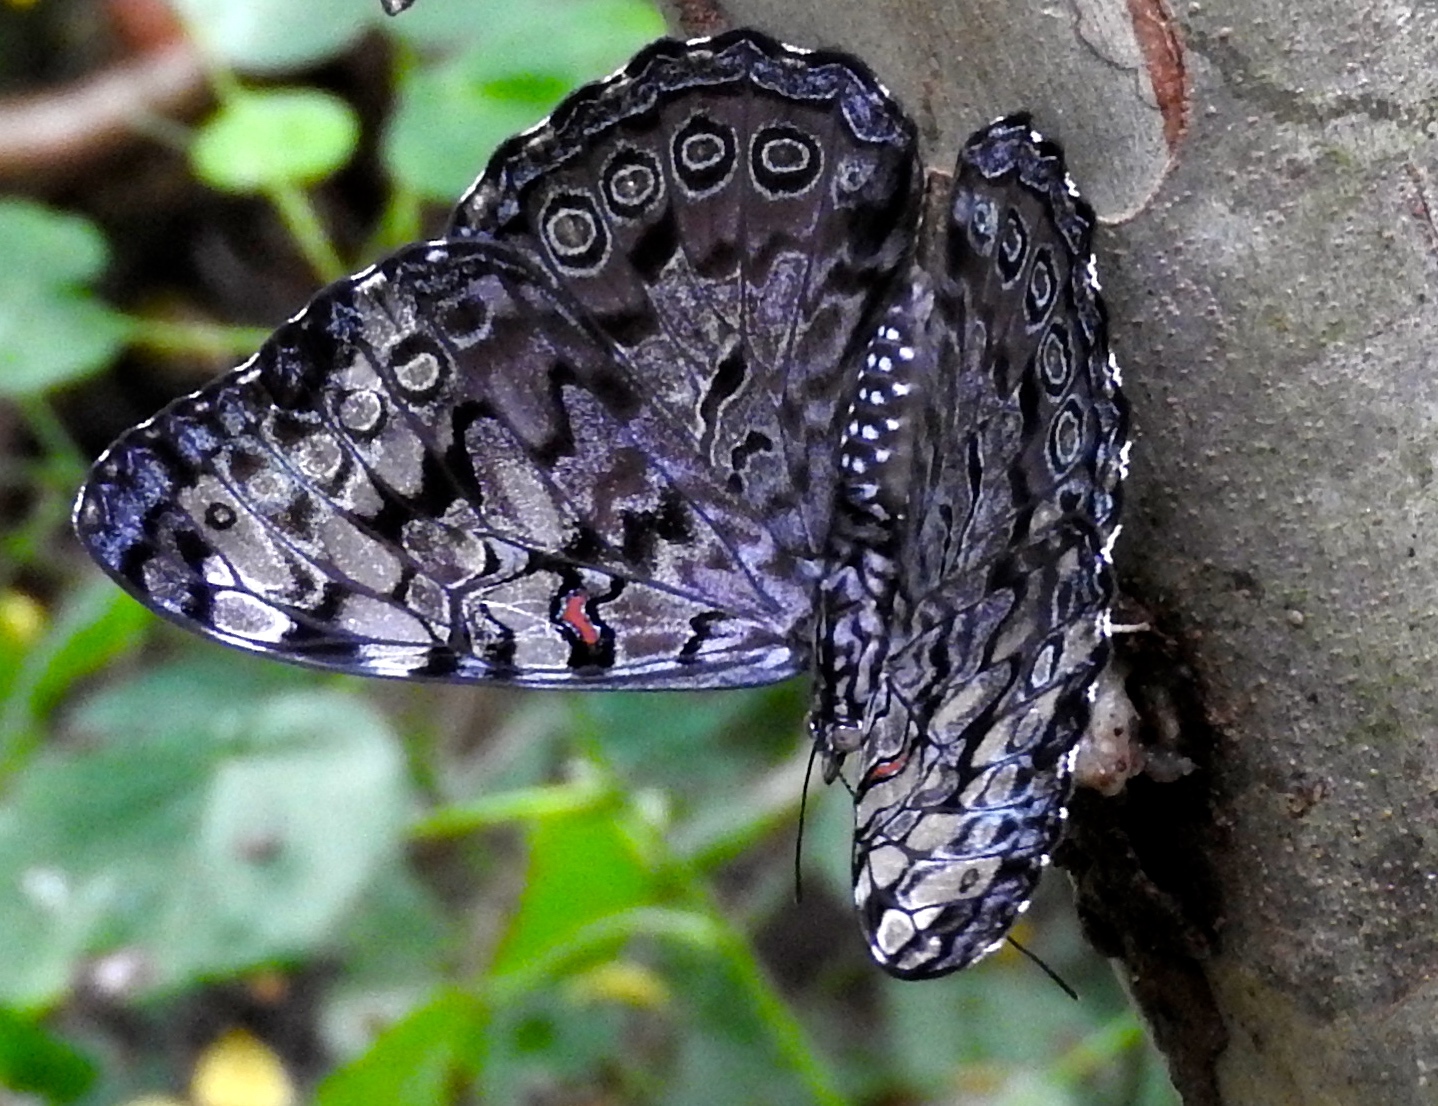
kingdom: Animalia
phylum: Arthropoda
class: Insecta
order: Lepidoptera
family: Nymphalidae
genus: Hamadryas
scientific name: Hamadryas guatemalena
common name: Guatemalan cracker
